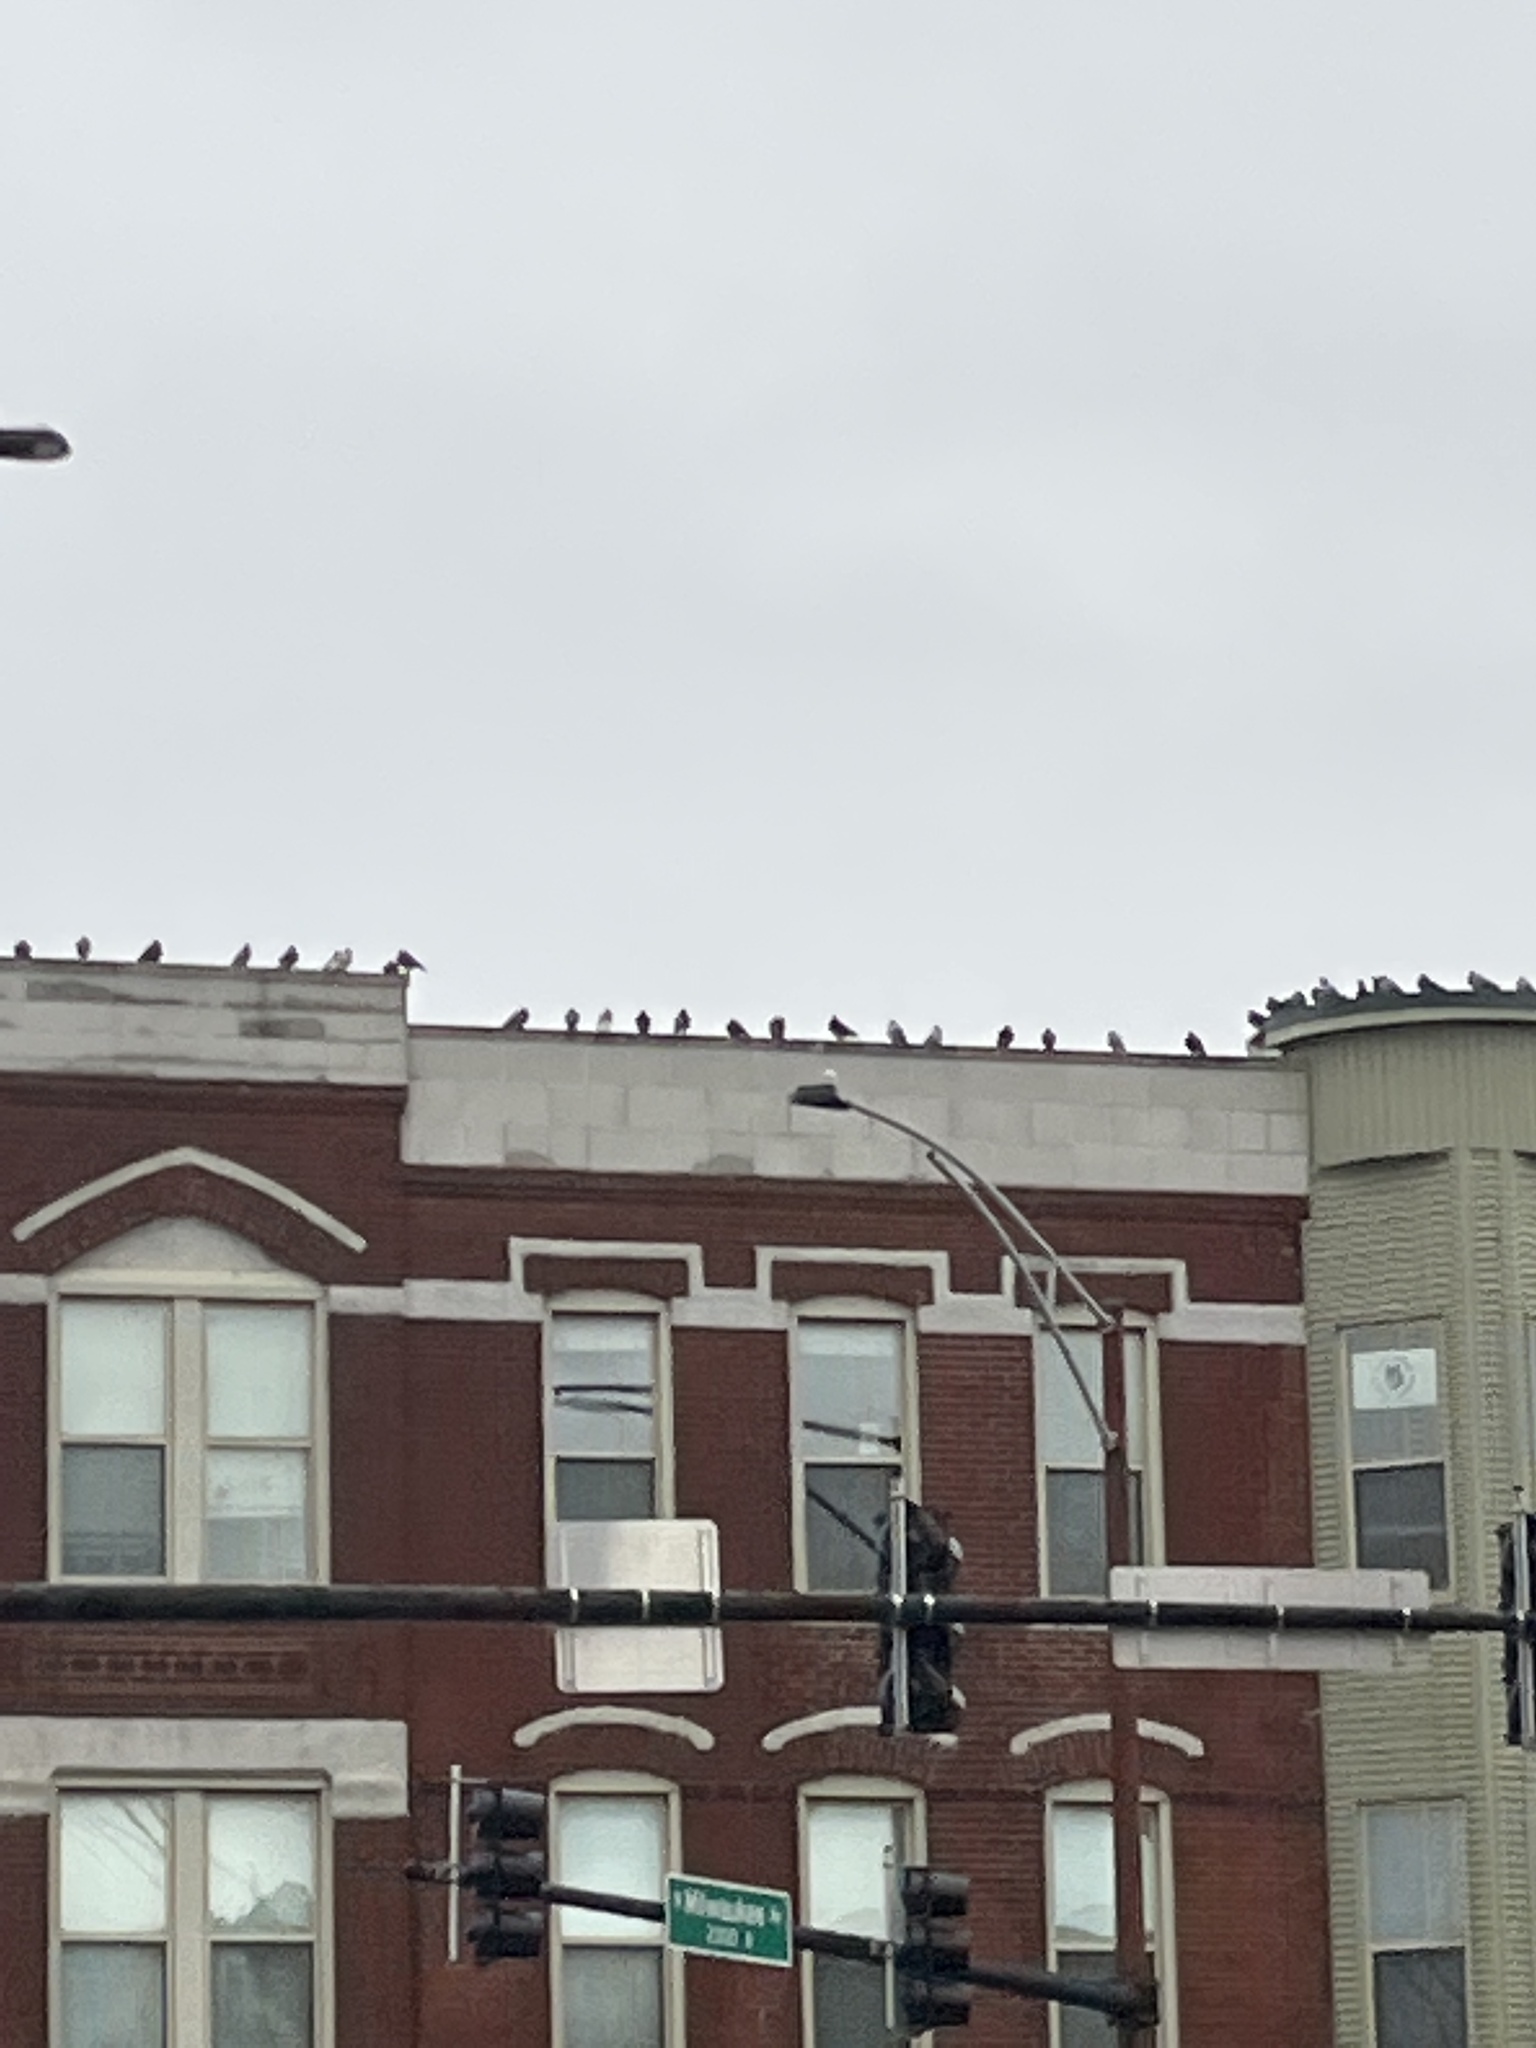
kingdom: Animalia
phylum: Chordata
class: Aves
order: Columbiformes
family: Columbidae
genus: Columba
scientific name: Columba livia
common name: Rock pigeon
